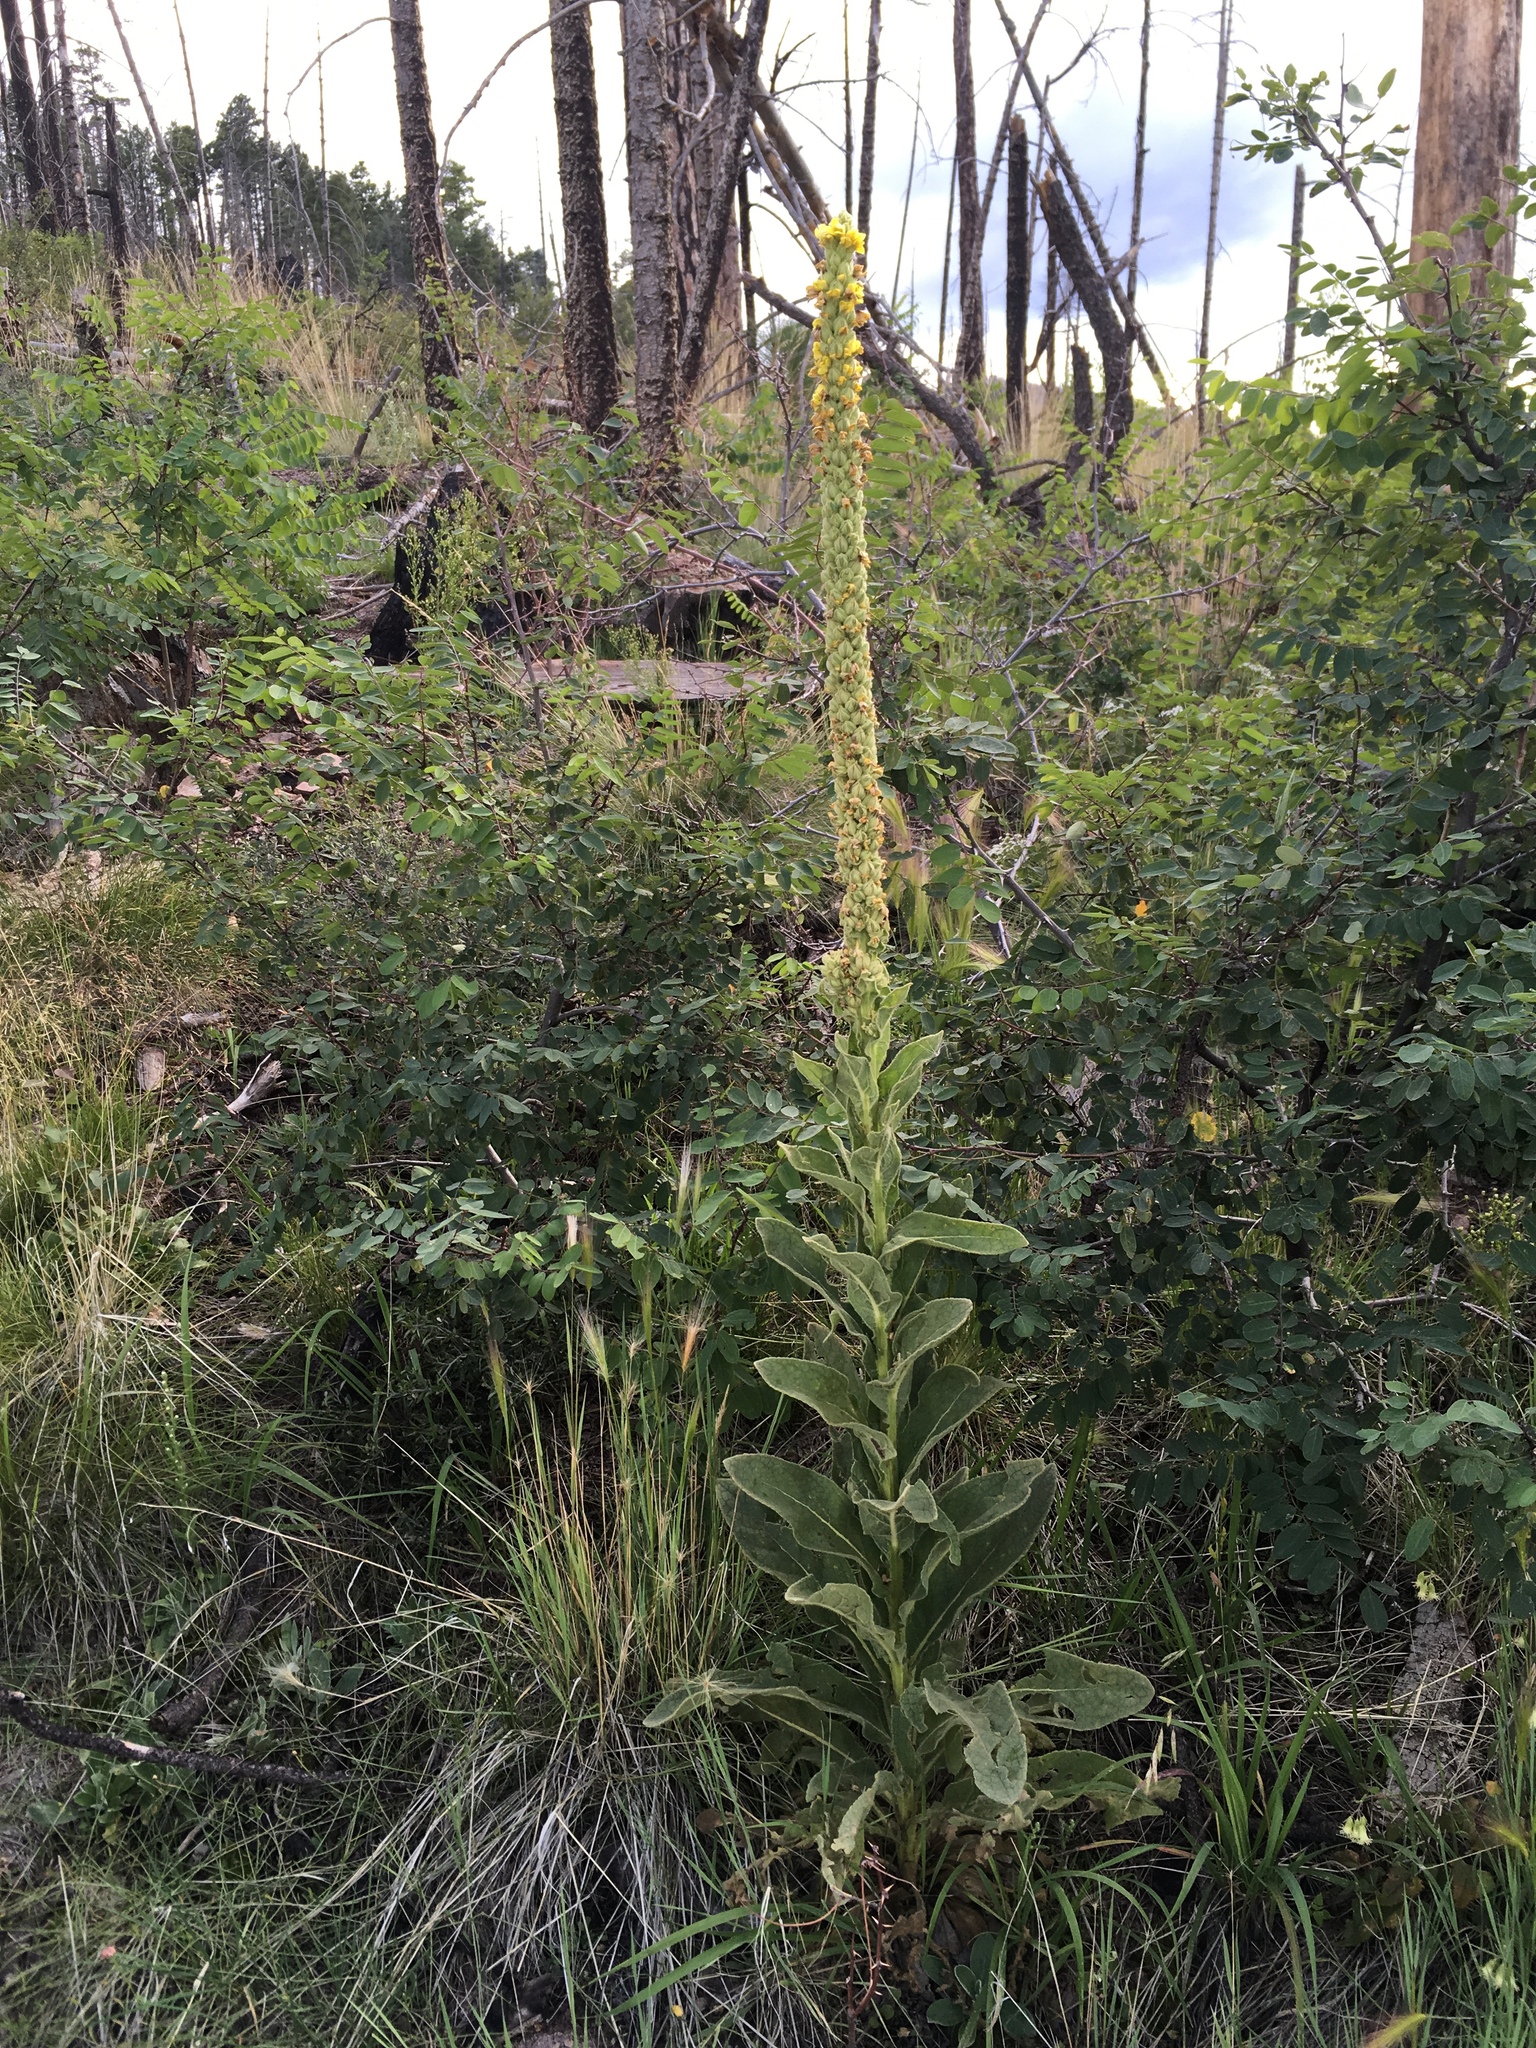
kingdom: Plantae
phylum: Tracheophyta
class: Magnoliopsida
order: Lamiales
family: Scrophulariaceae
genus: Verbascum
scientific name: Verbascum thapsus
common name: Common mullein
